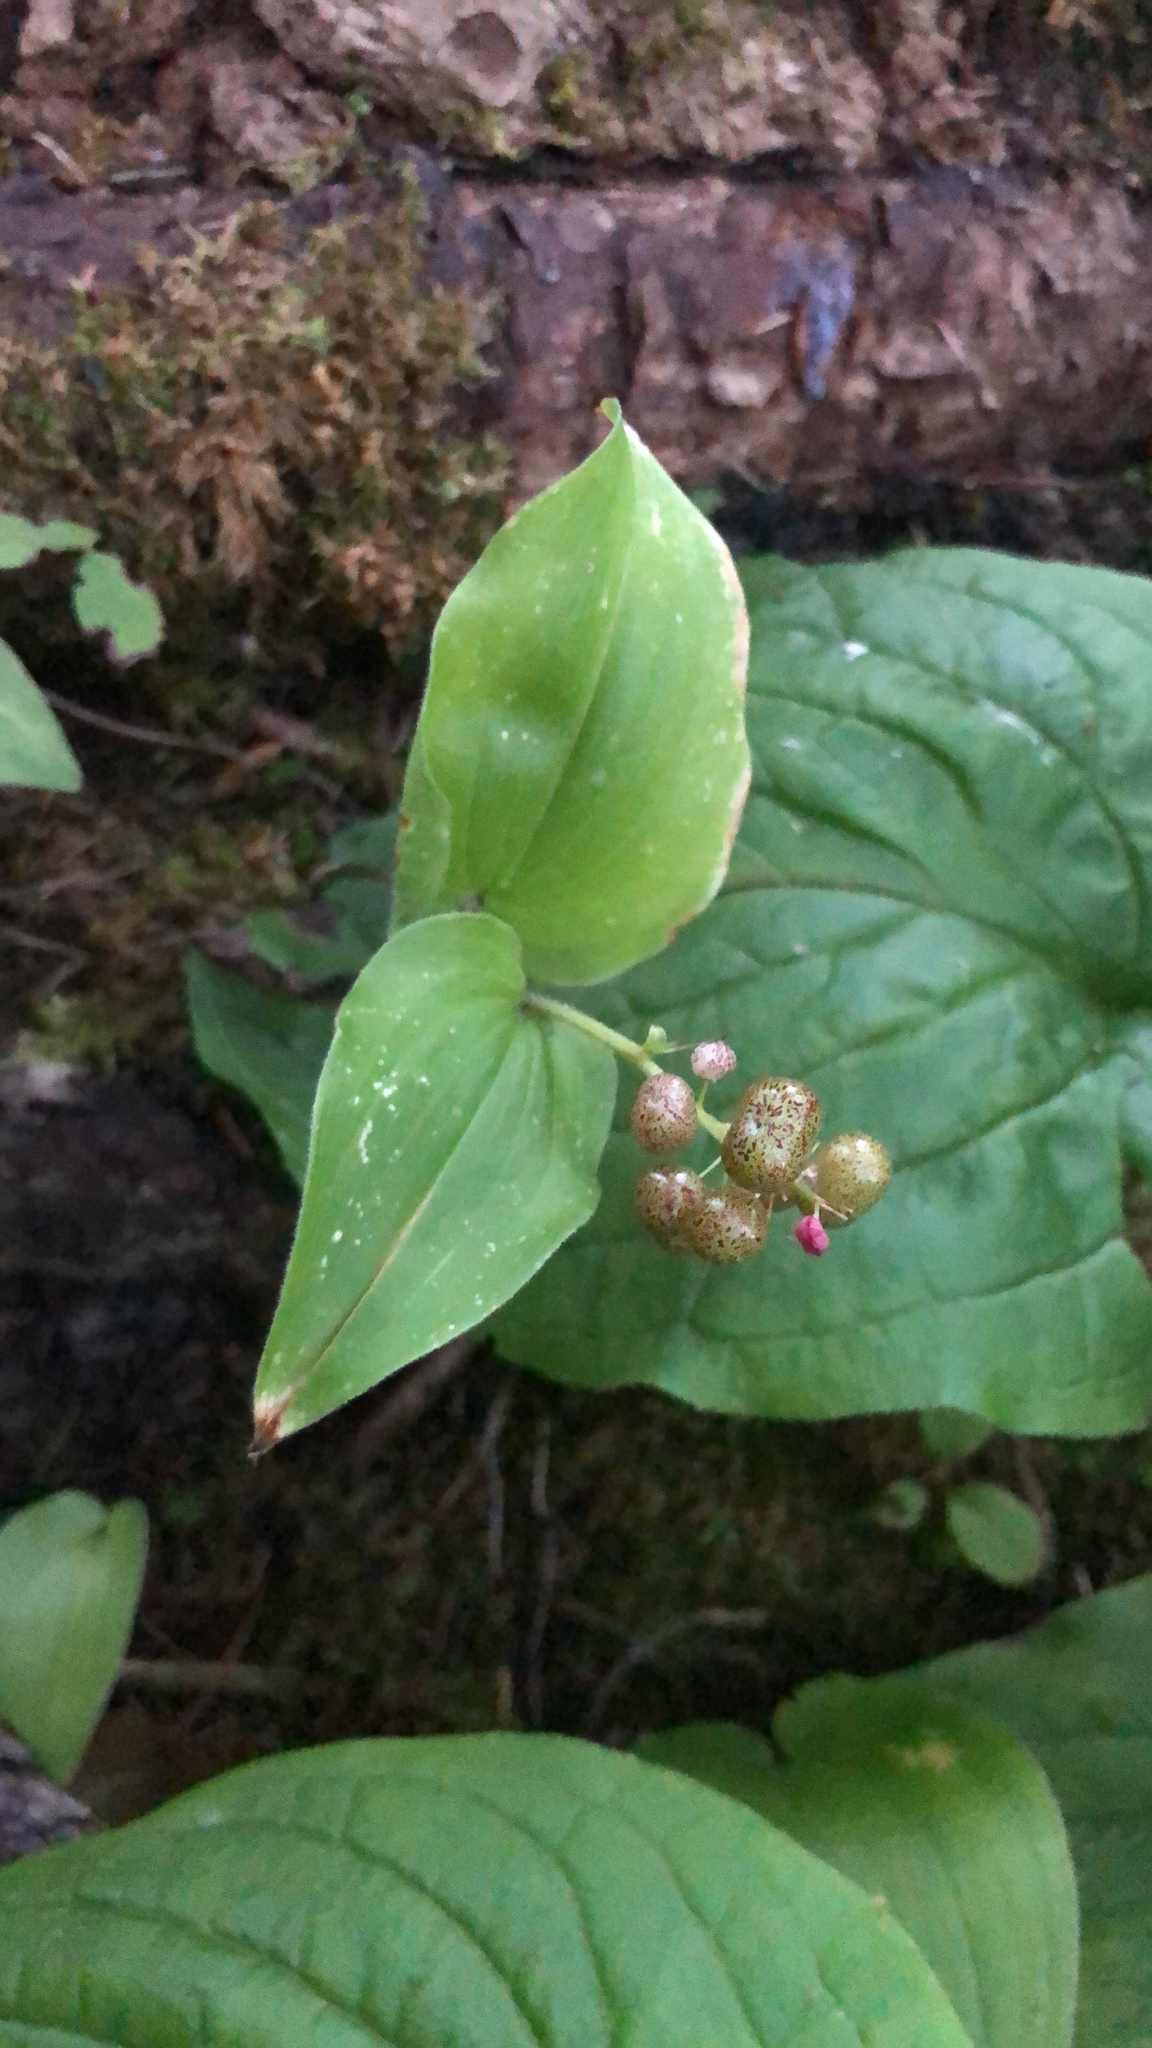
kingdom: Plantae
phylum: Tracheophyta
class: Liliopsida
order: Asparagales
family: Asparagaceae
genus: Maianthemum
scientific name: Maianthemum canadense
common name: False lily-of-the-valley
